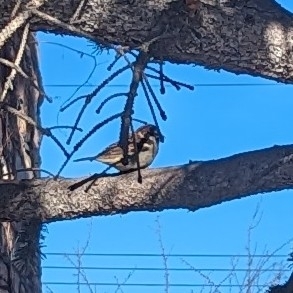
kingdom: Animalia
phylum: Chordata
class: Aves
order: Passeriformes
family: Passeridae
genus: Passer
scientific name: Passer domesticus
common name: House sparrow
